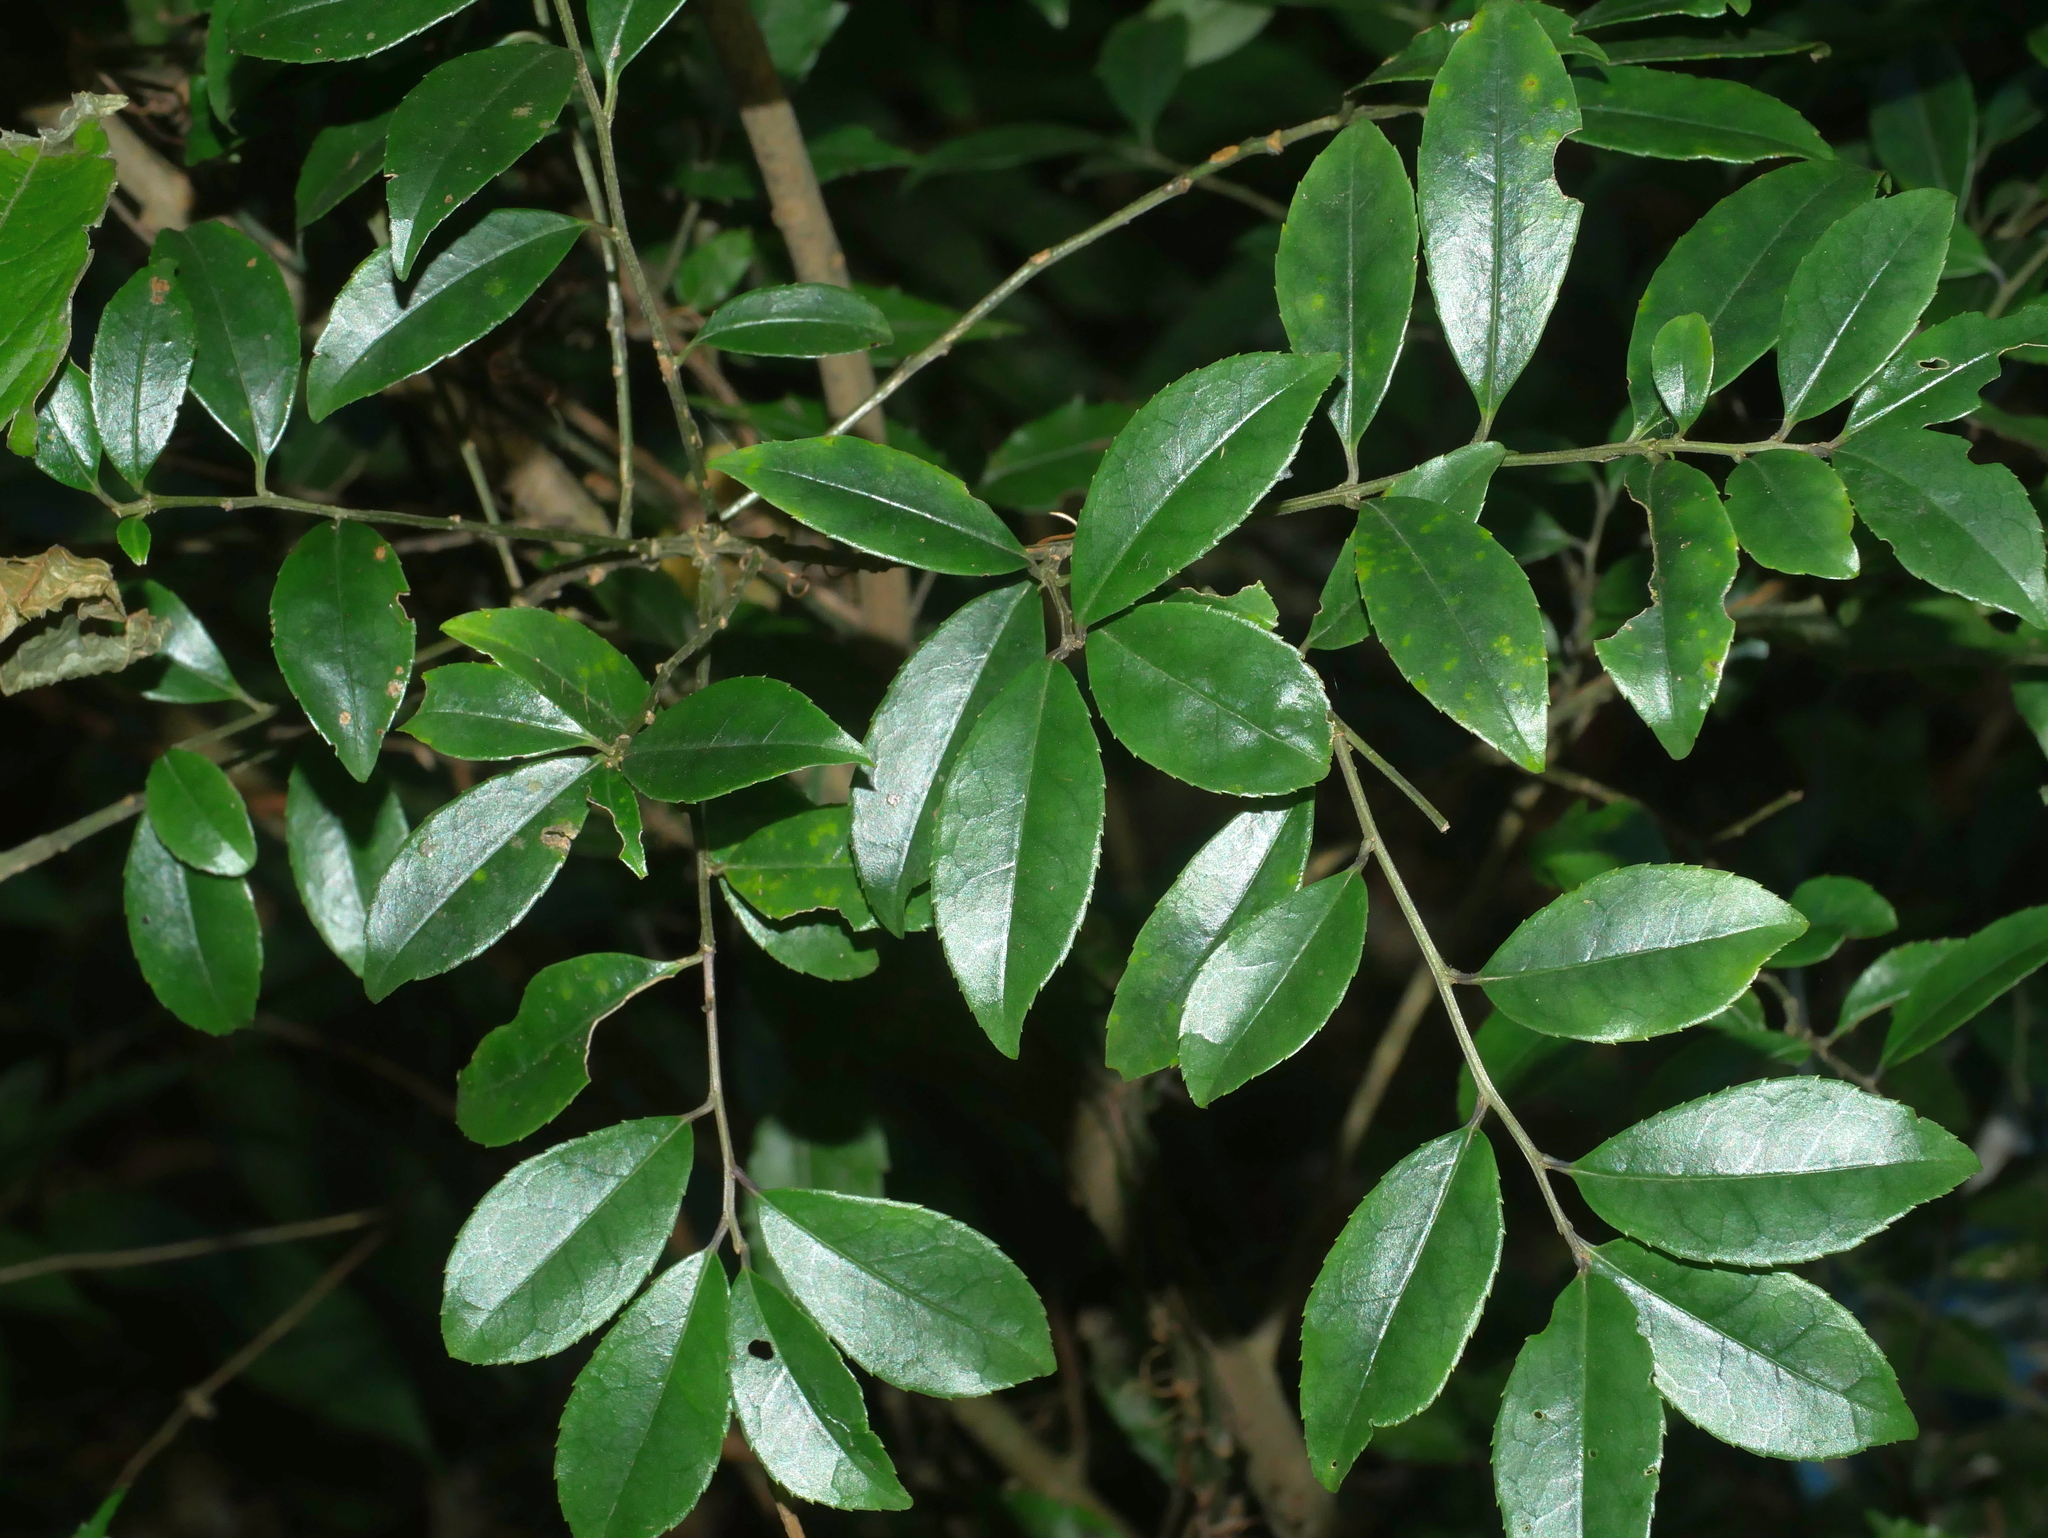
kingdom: Plantae
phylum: Tracheophyta
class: Magnoliopsida
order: Aquifoliales
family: Aquifoliaceae
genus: Ilex
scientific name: Ilex rotunda
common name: Kurogane holly
